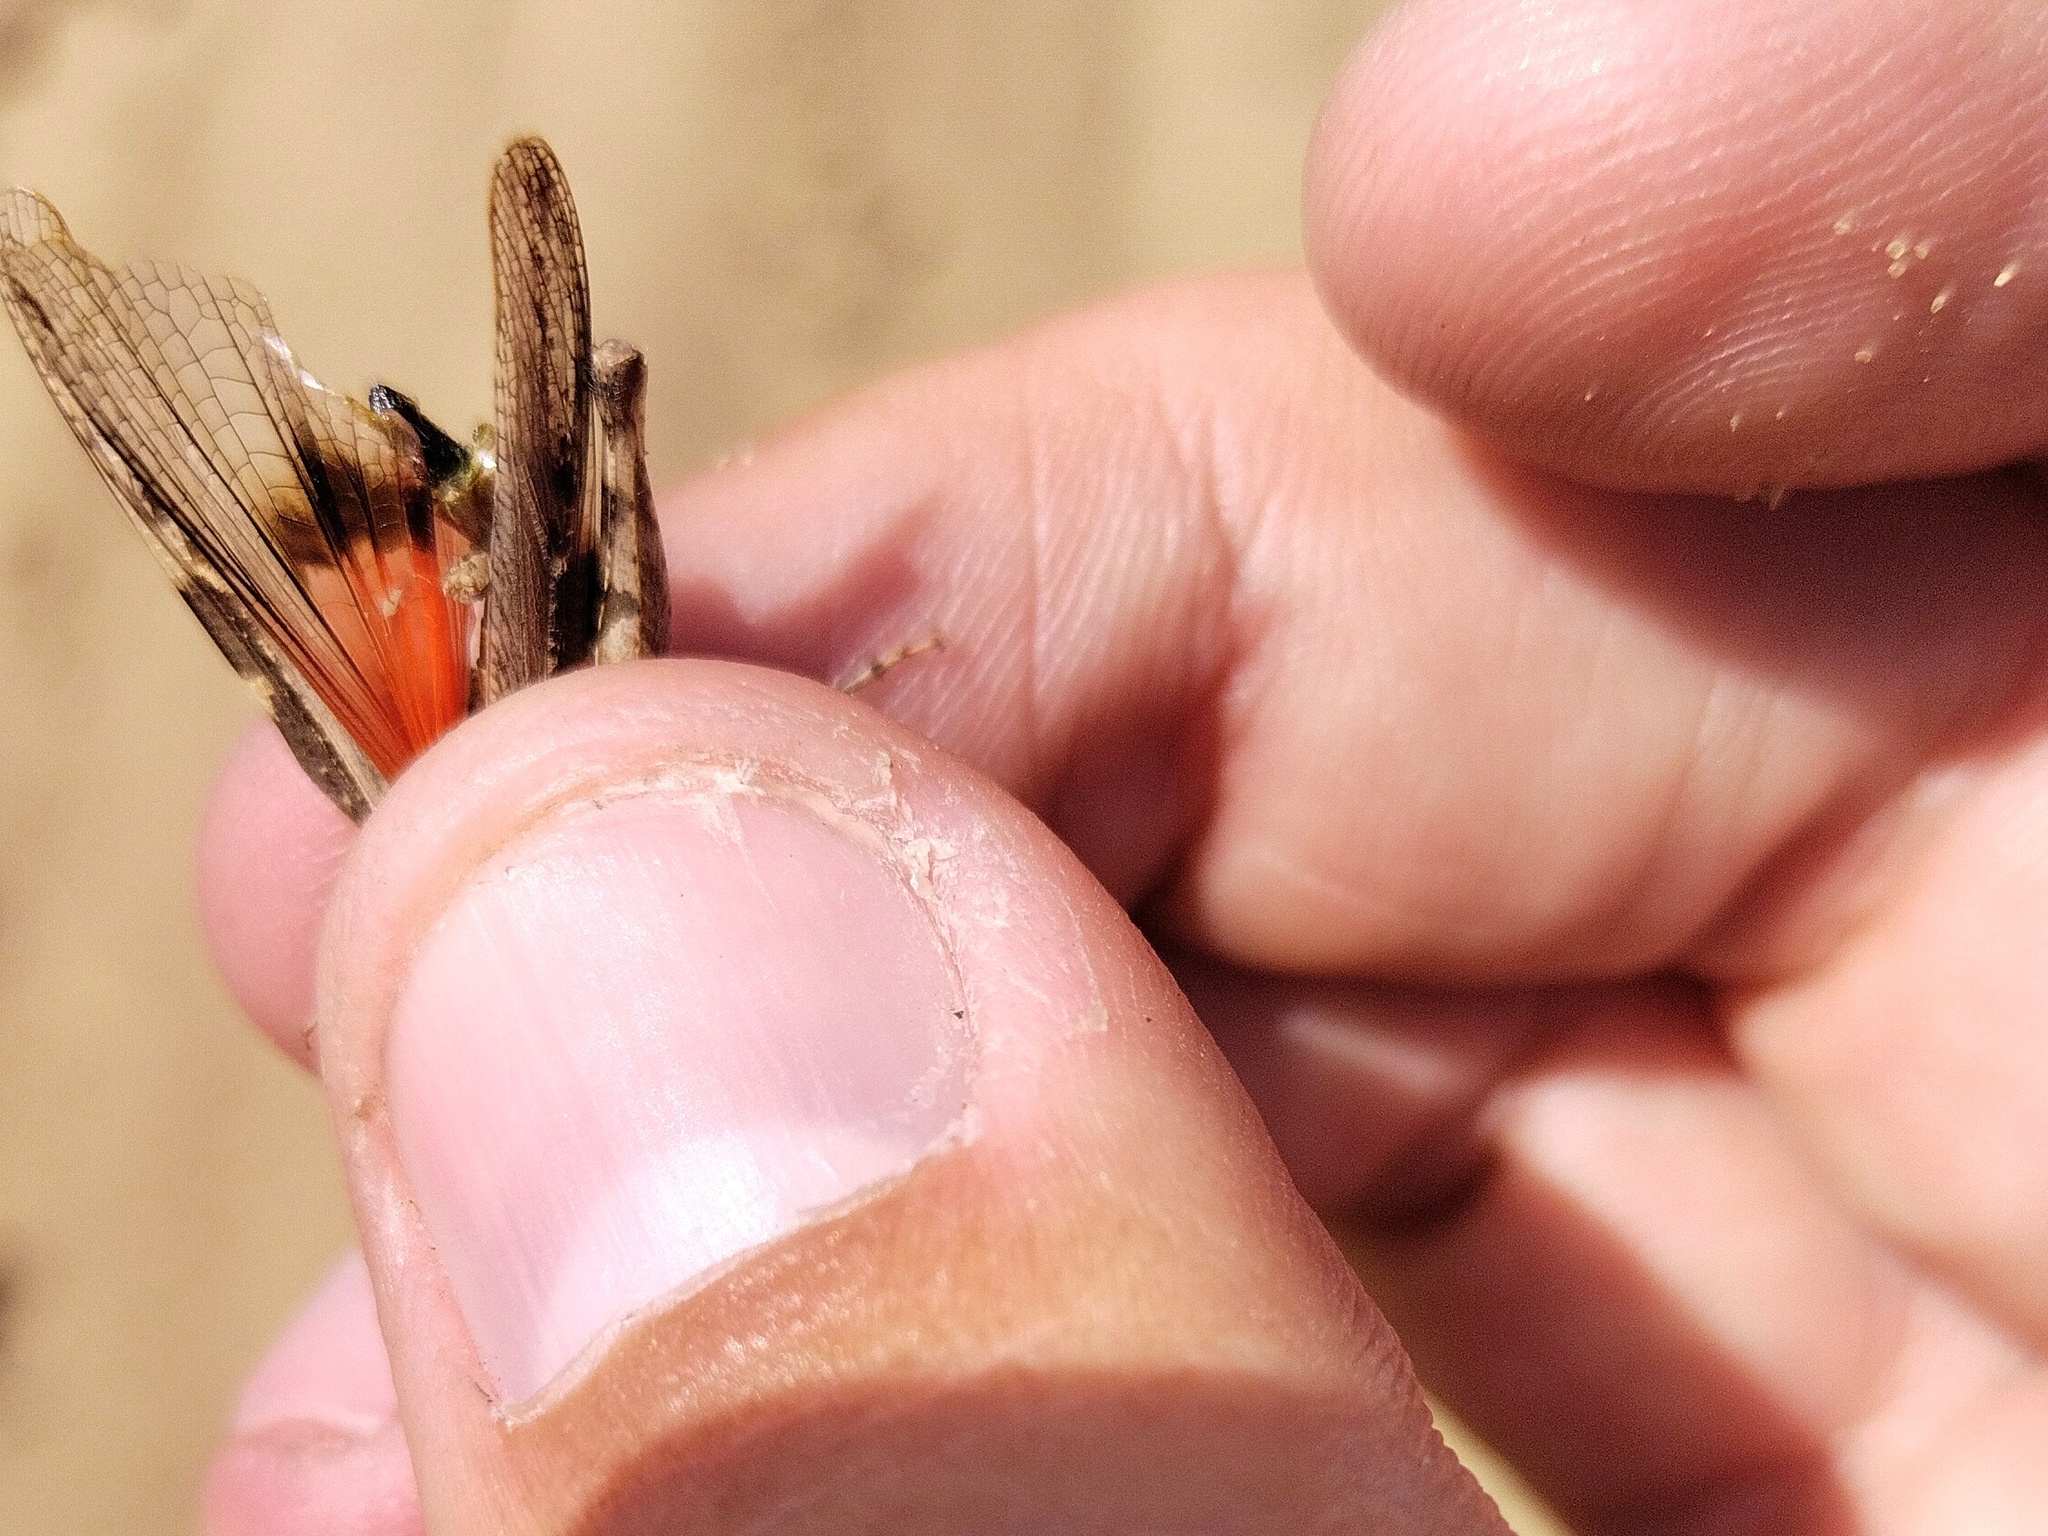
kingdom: Animalia
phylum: Arthropoda
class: Insecta
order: Orthoptera
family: Acrididae
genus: Acrotylus
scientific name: Acrotylus insubricus
